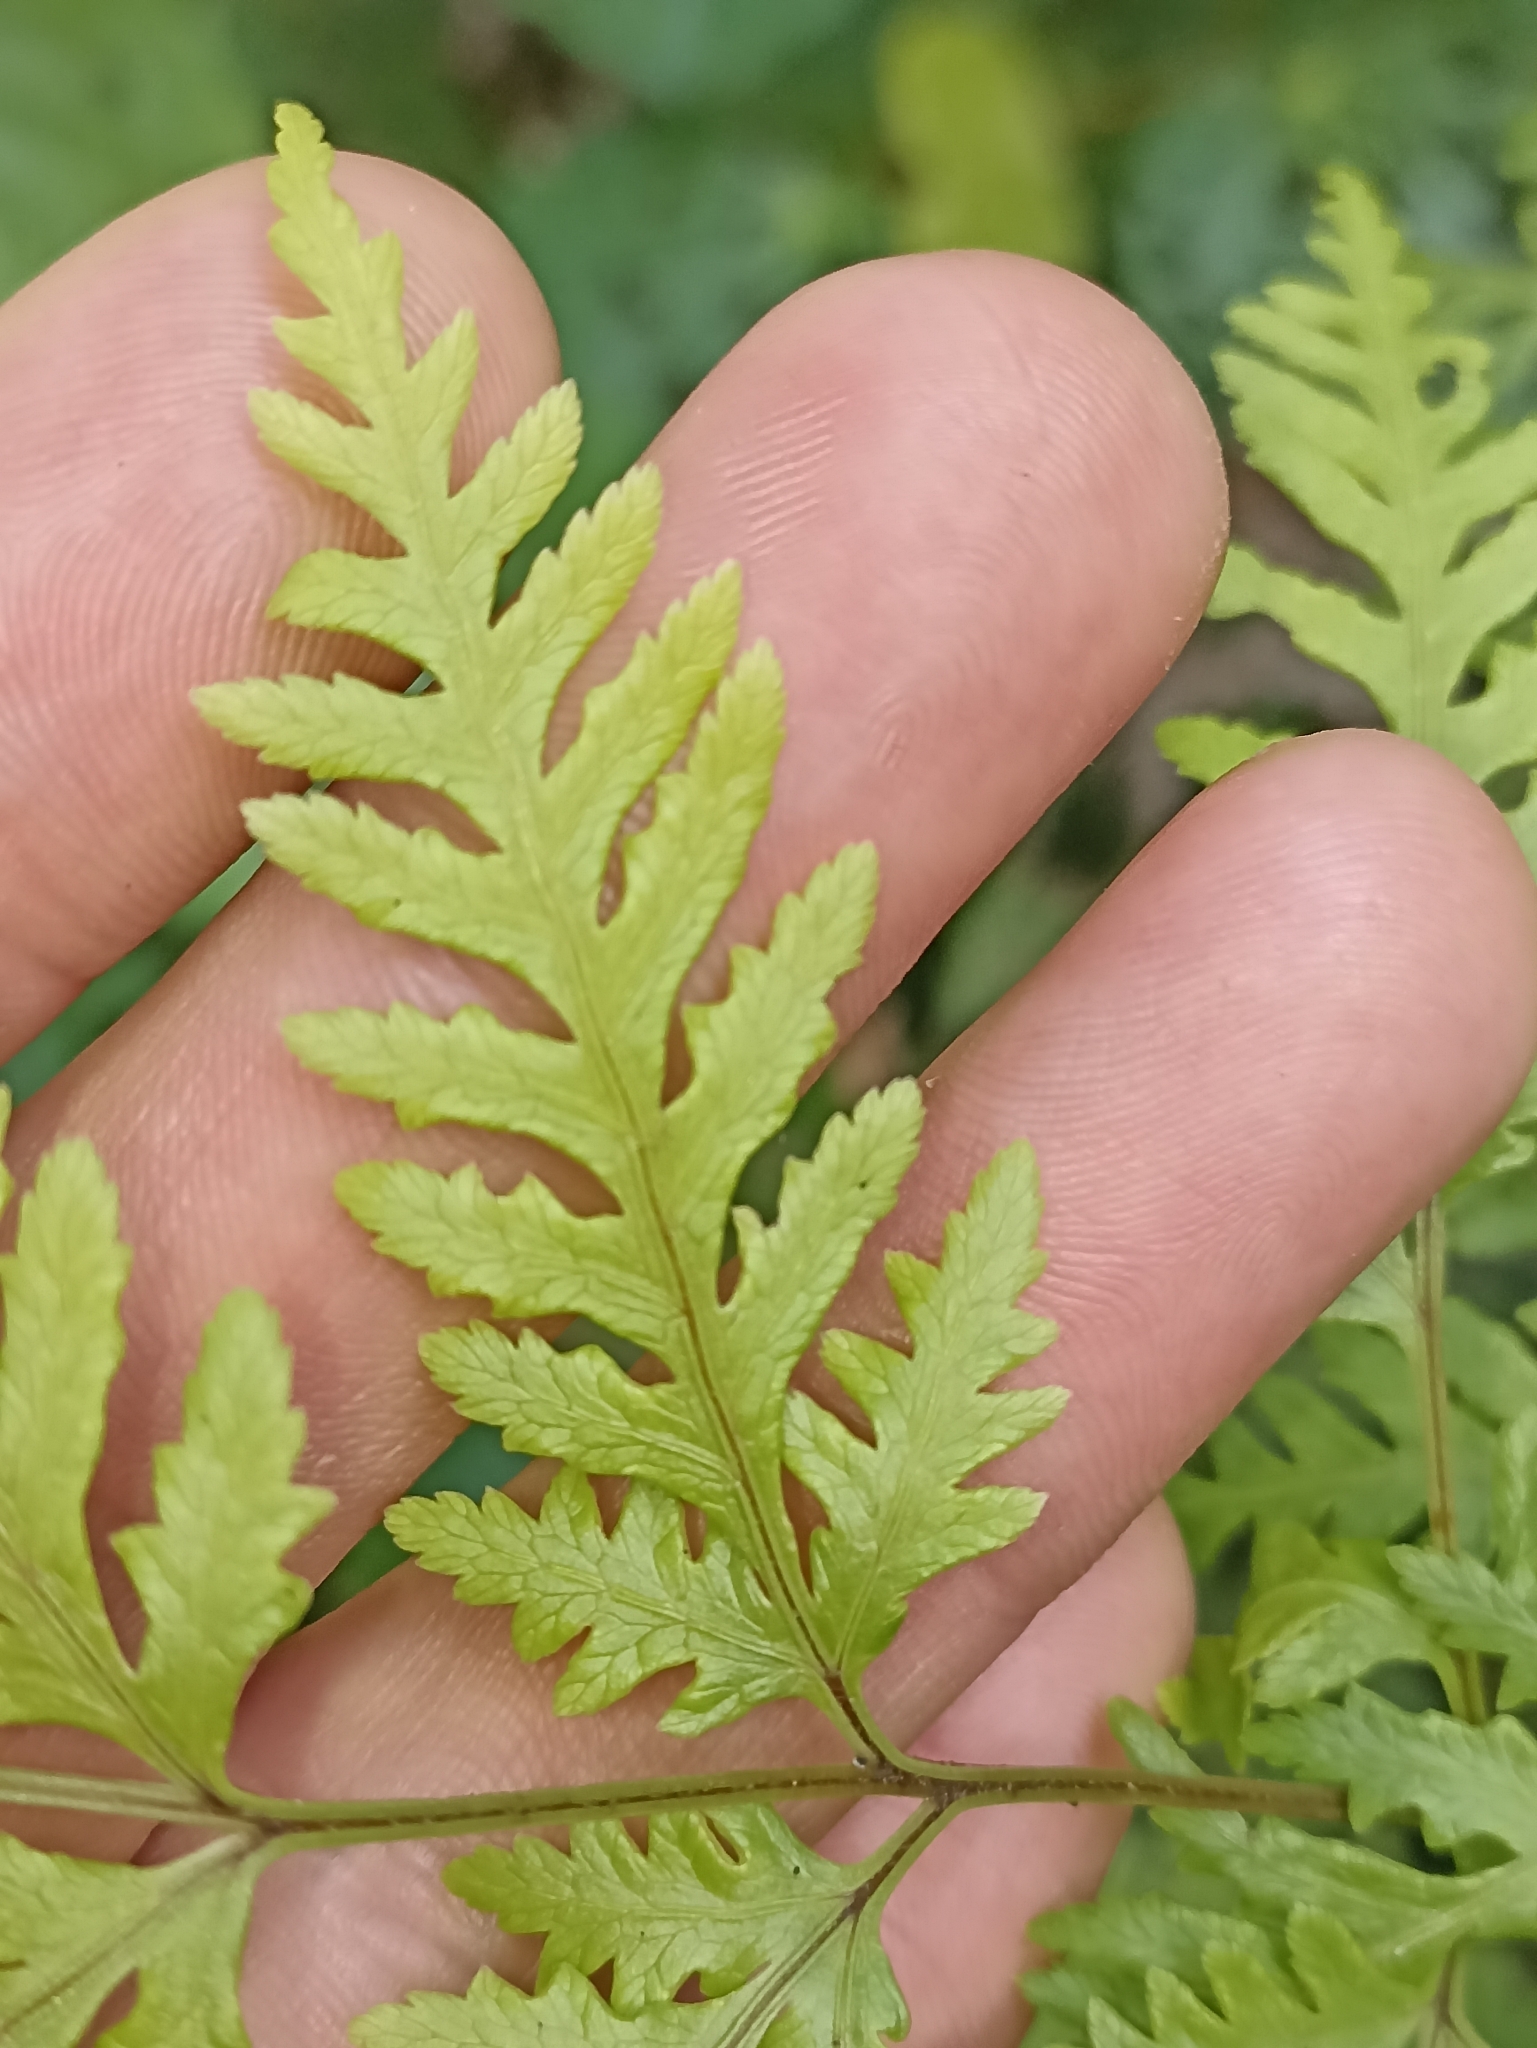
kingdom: Plantae
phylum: Tracheophyta
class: Polypodiopsida
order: Polypodiales
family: Pteridaceae
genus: Pteris
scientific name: Pteris macilenta
